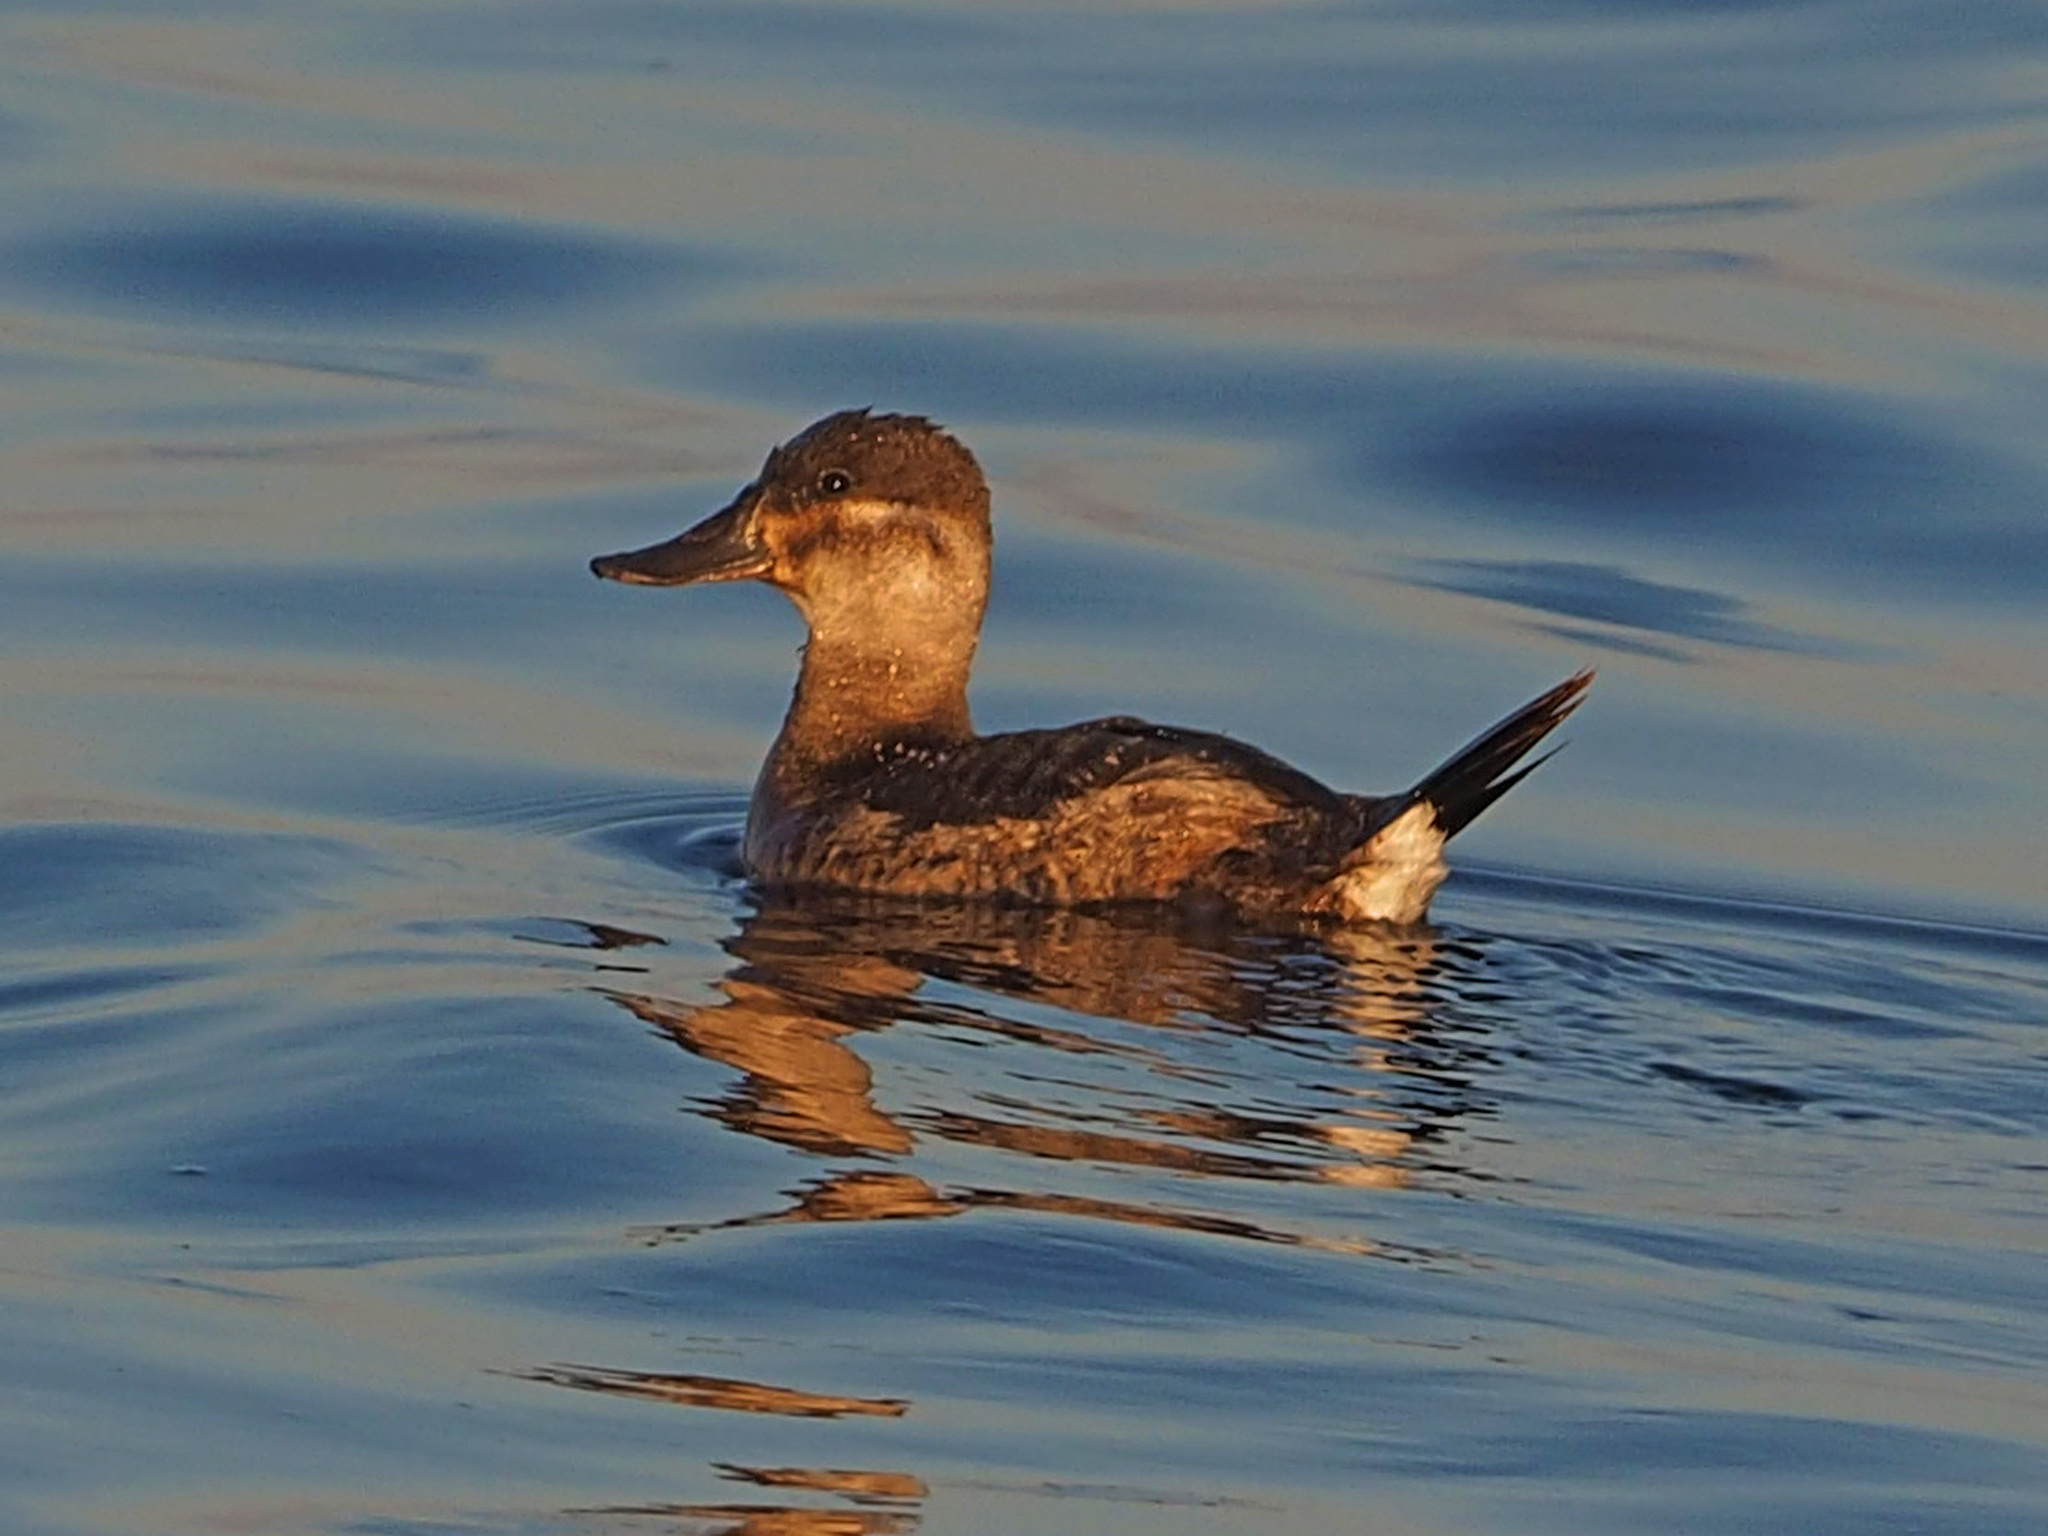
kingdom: Animalia
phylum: Chordata
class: Aves
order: Anseriformes
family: Anatidae
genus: Oxyura
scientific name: Oxyura jamaicensis
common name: Ruddy duck
